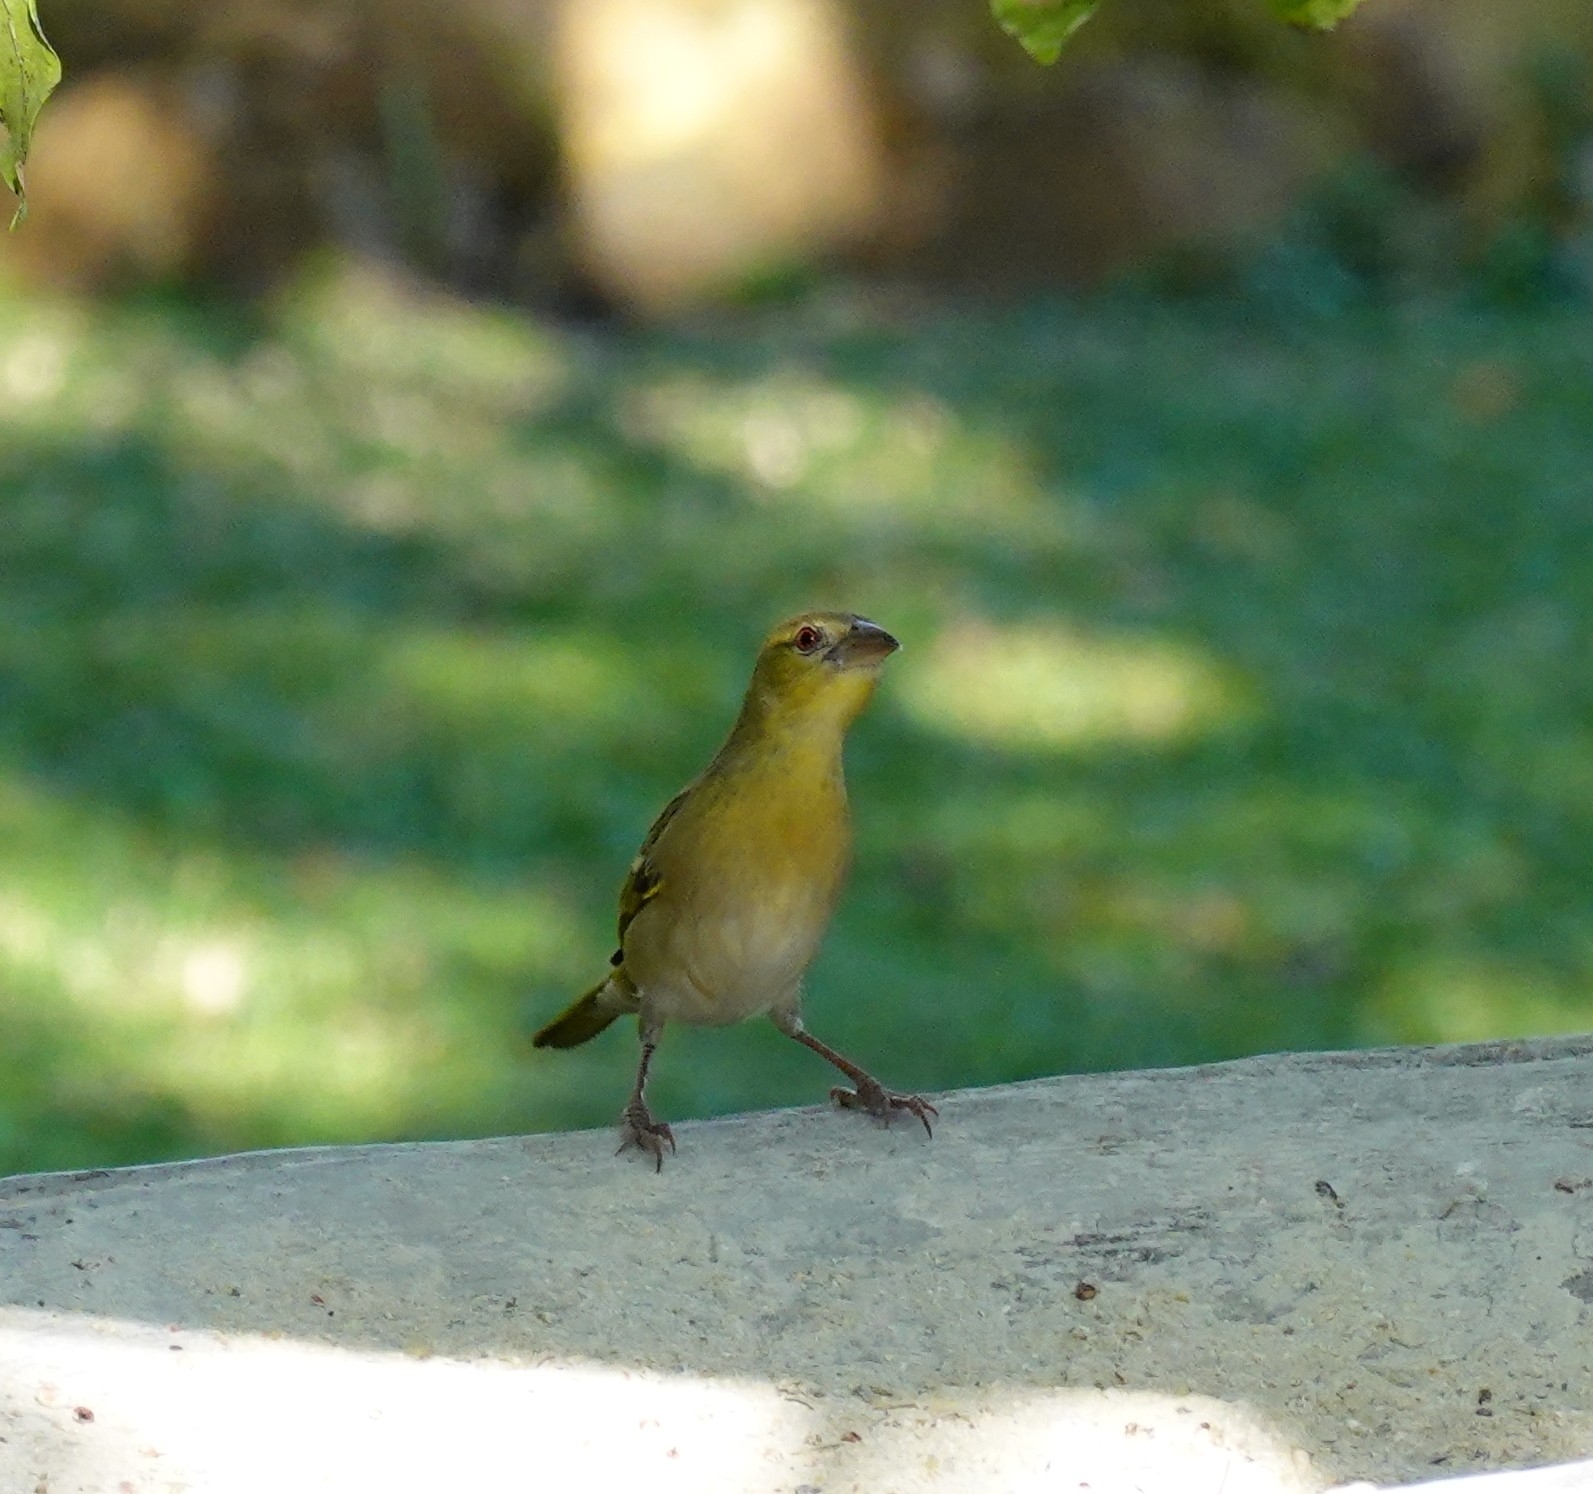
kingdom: Animalia
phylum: Chordata
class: Aves
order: Passeriformes
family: Ploceidae
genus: Ploceus
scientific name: Ploceus cucullatus
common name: Village weaver
